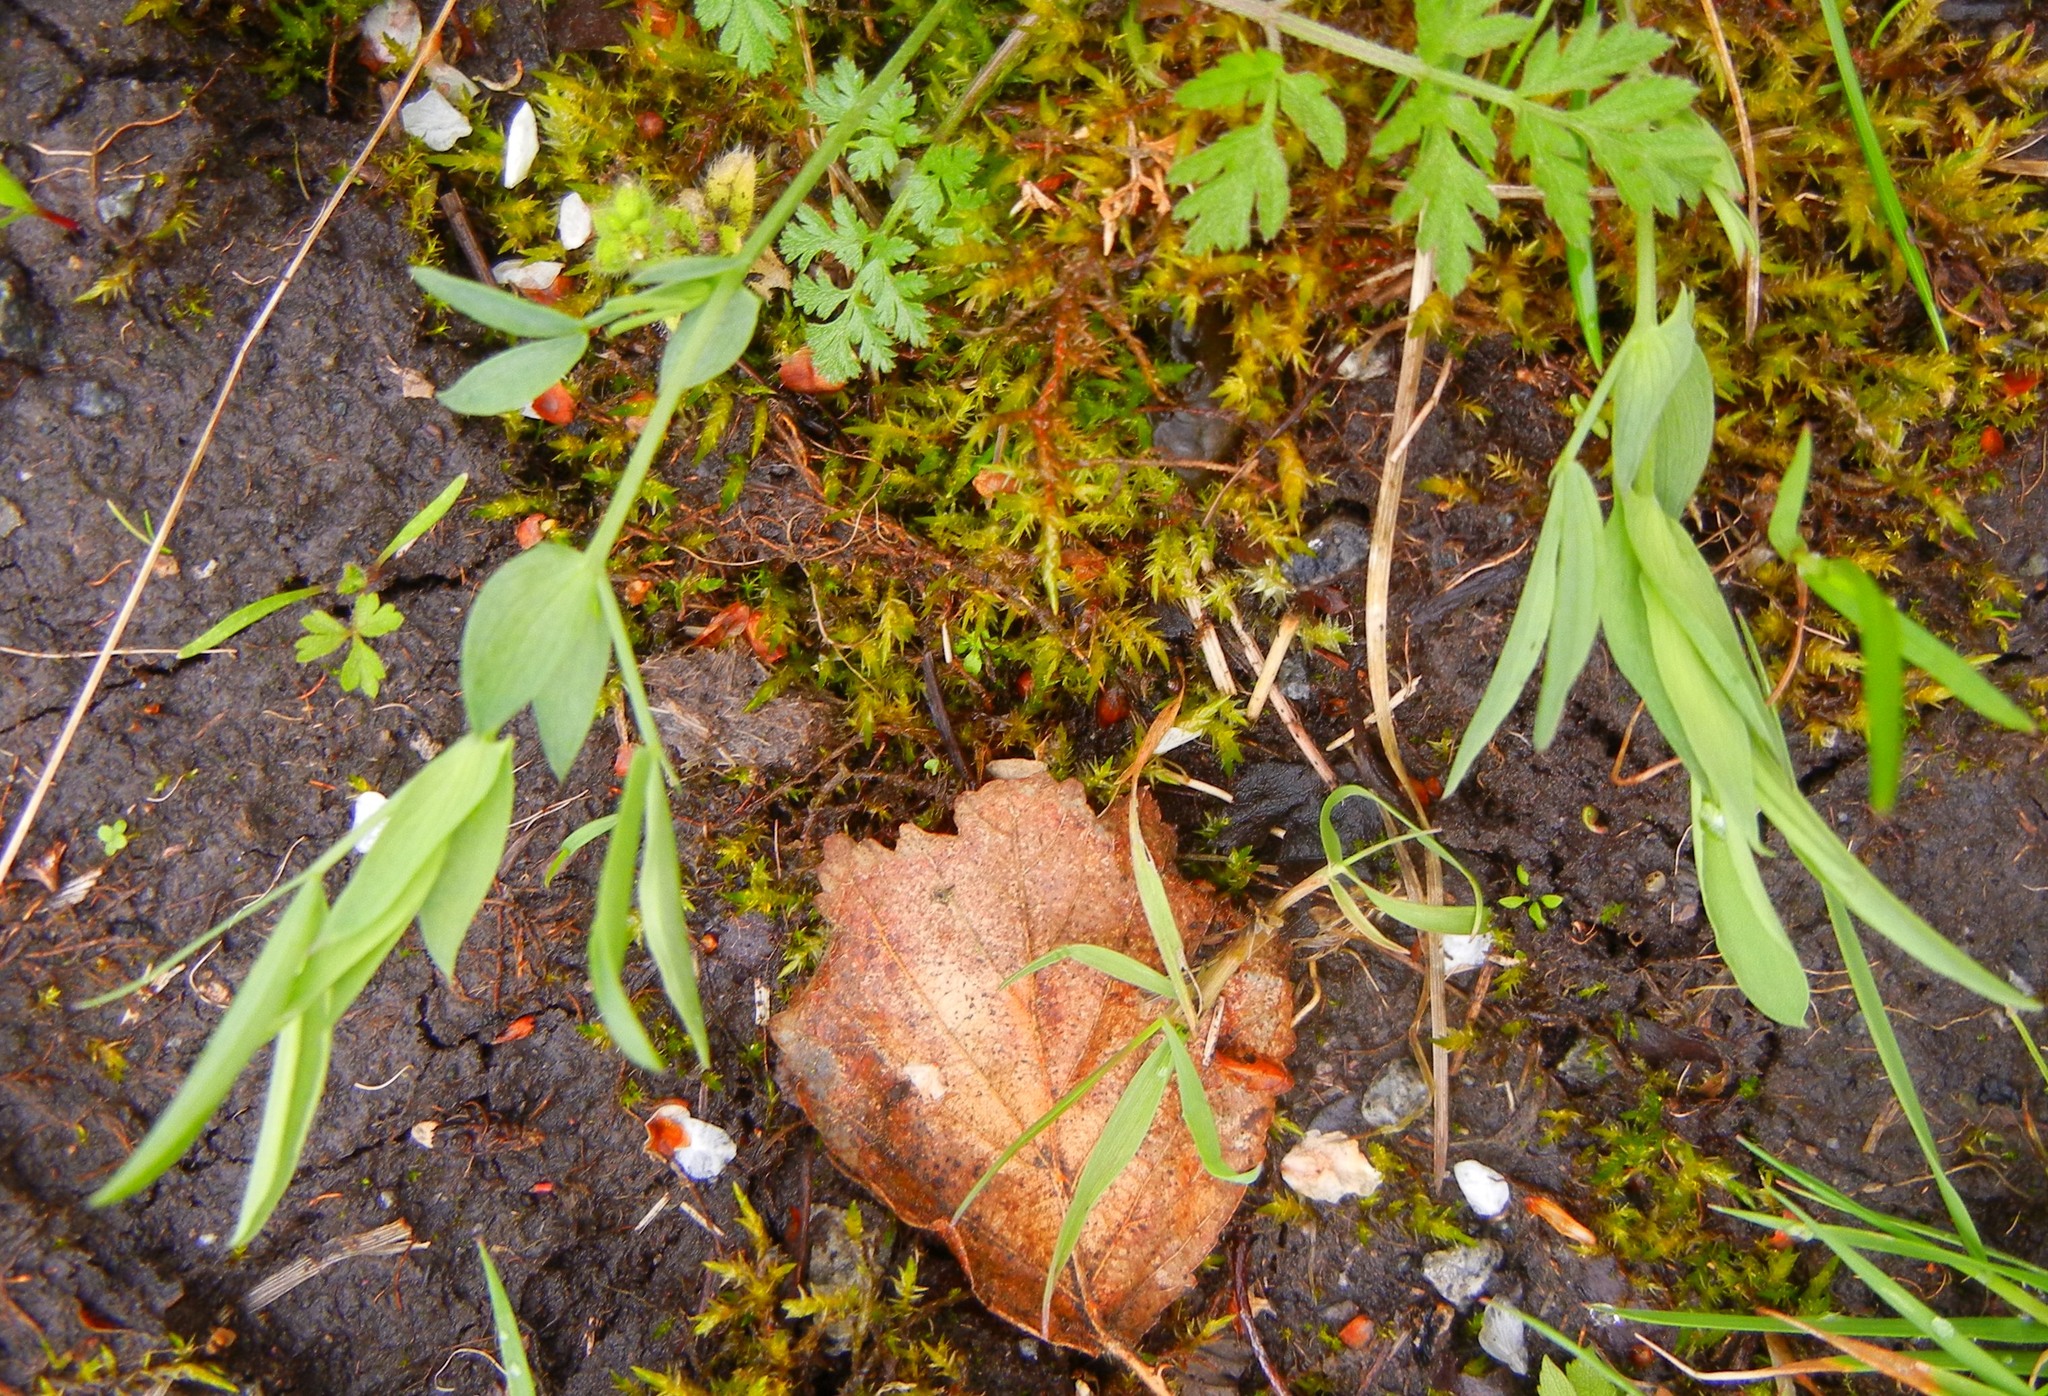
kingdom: Plantae
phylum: Tracheophyta
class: Magnoliopsida
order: Fabales
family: Fabaceae
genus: Lathyrus
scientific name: Lathyrus pratensis
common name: Meadow vetchling
